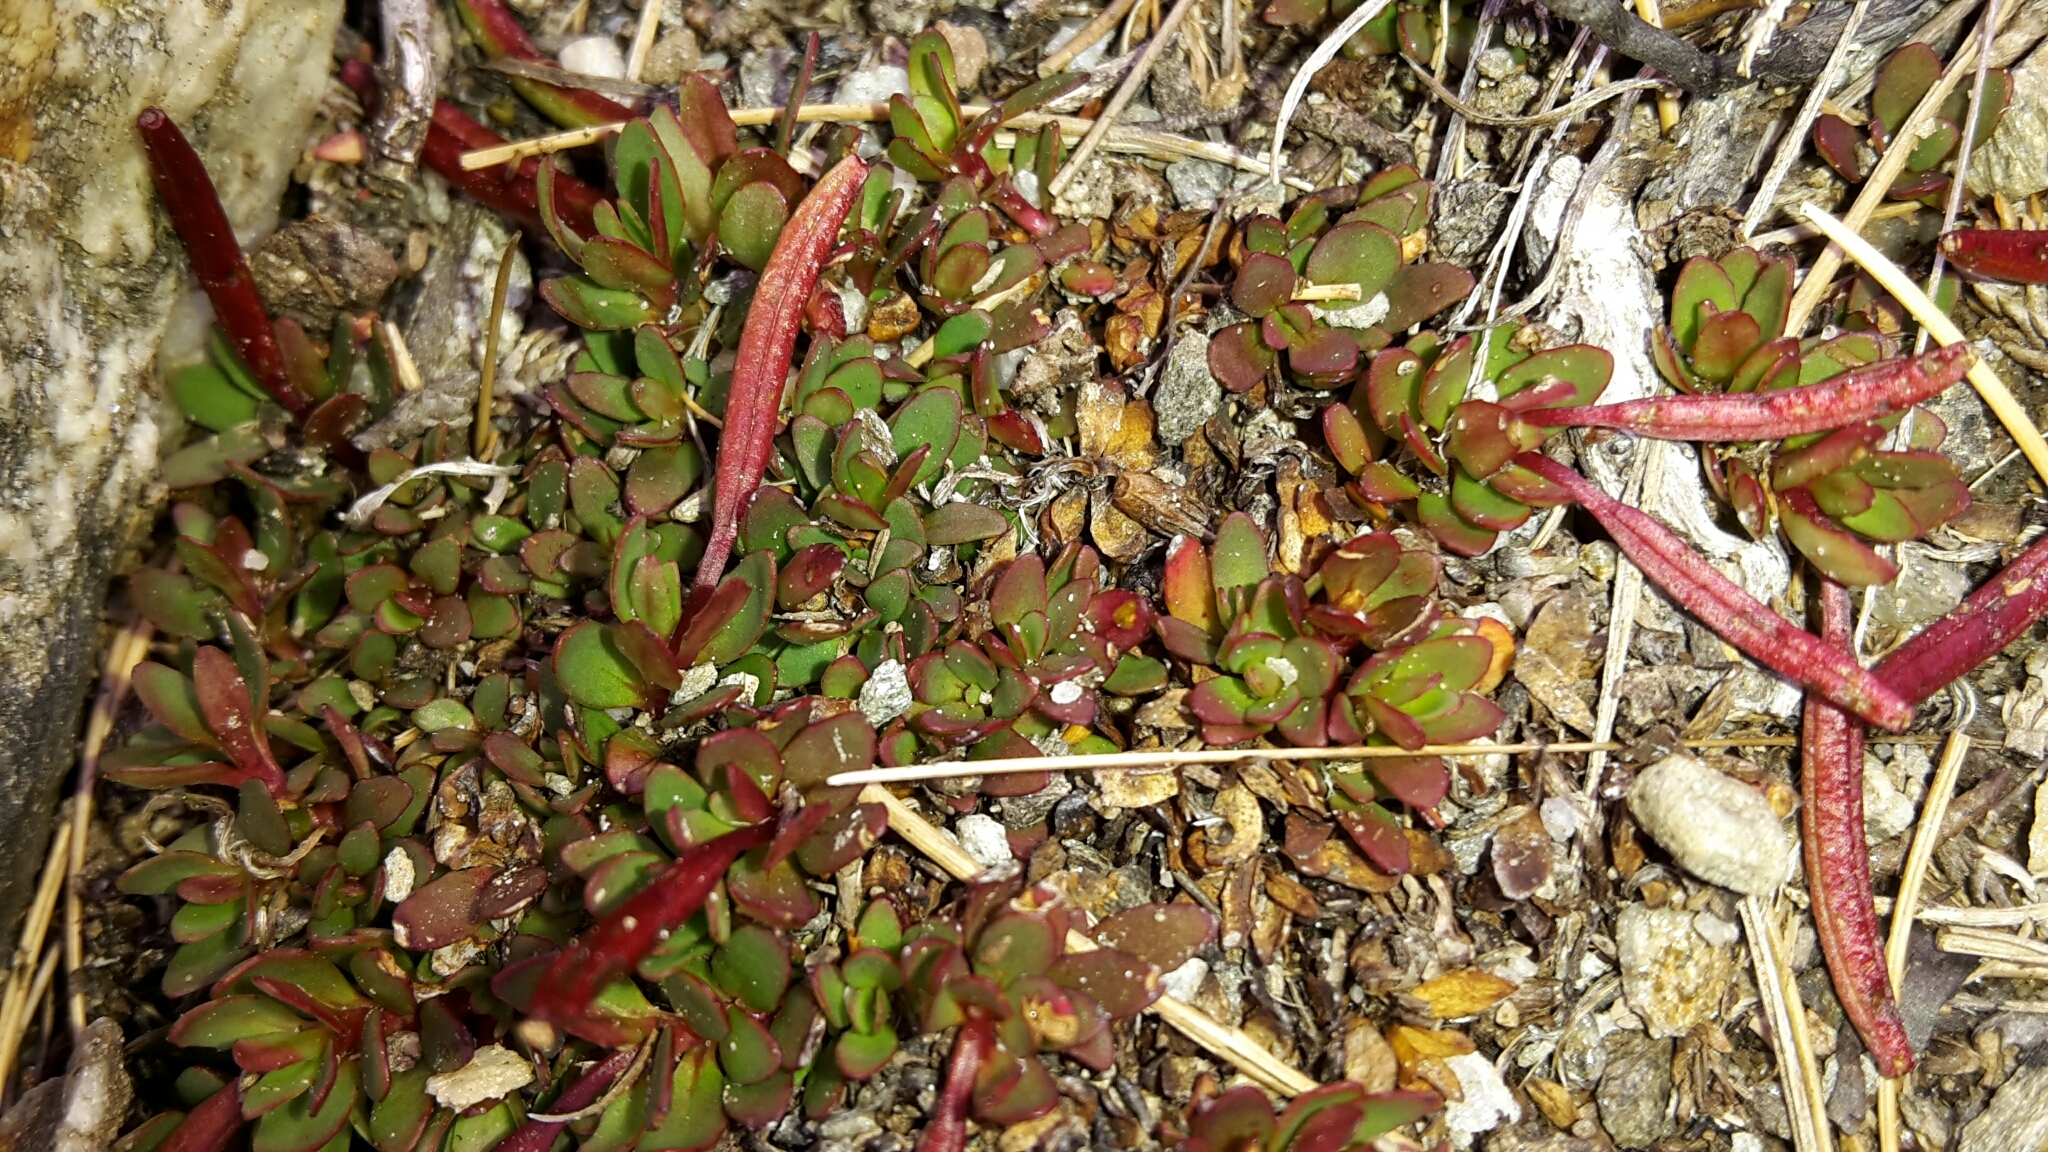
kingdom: Plantae
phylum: Tracheophyta
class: Magnoliopsida
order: Myrtales
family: Onagraceae
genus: Epilobium
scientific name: Epilobium tasmanicum
